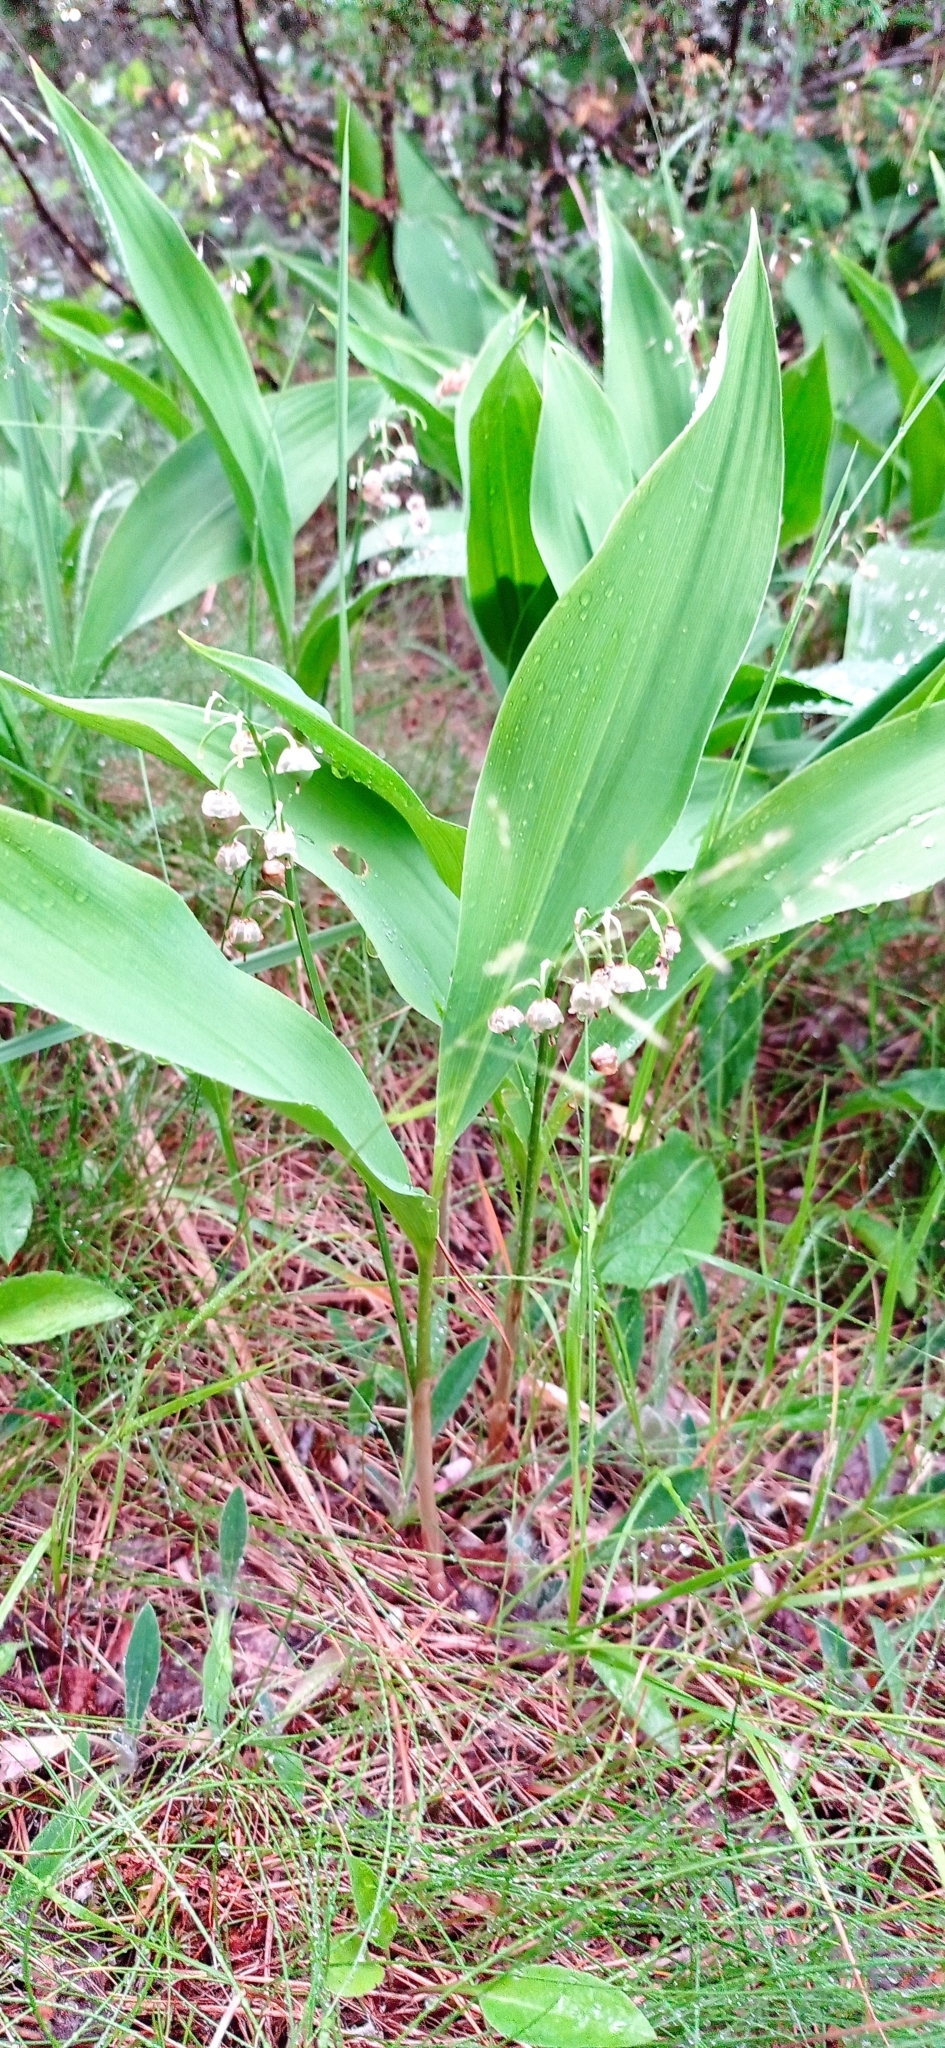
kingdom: Plantae
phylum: Tracheophyta
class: Liliopsida
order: Asparagales
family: Asparagaceae
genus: Convallaria
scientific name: Convallaria majalis
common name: Lily-of-the-valley
